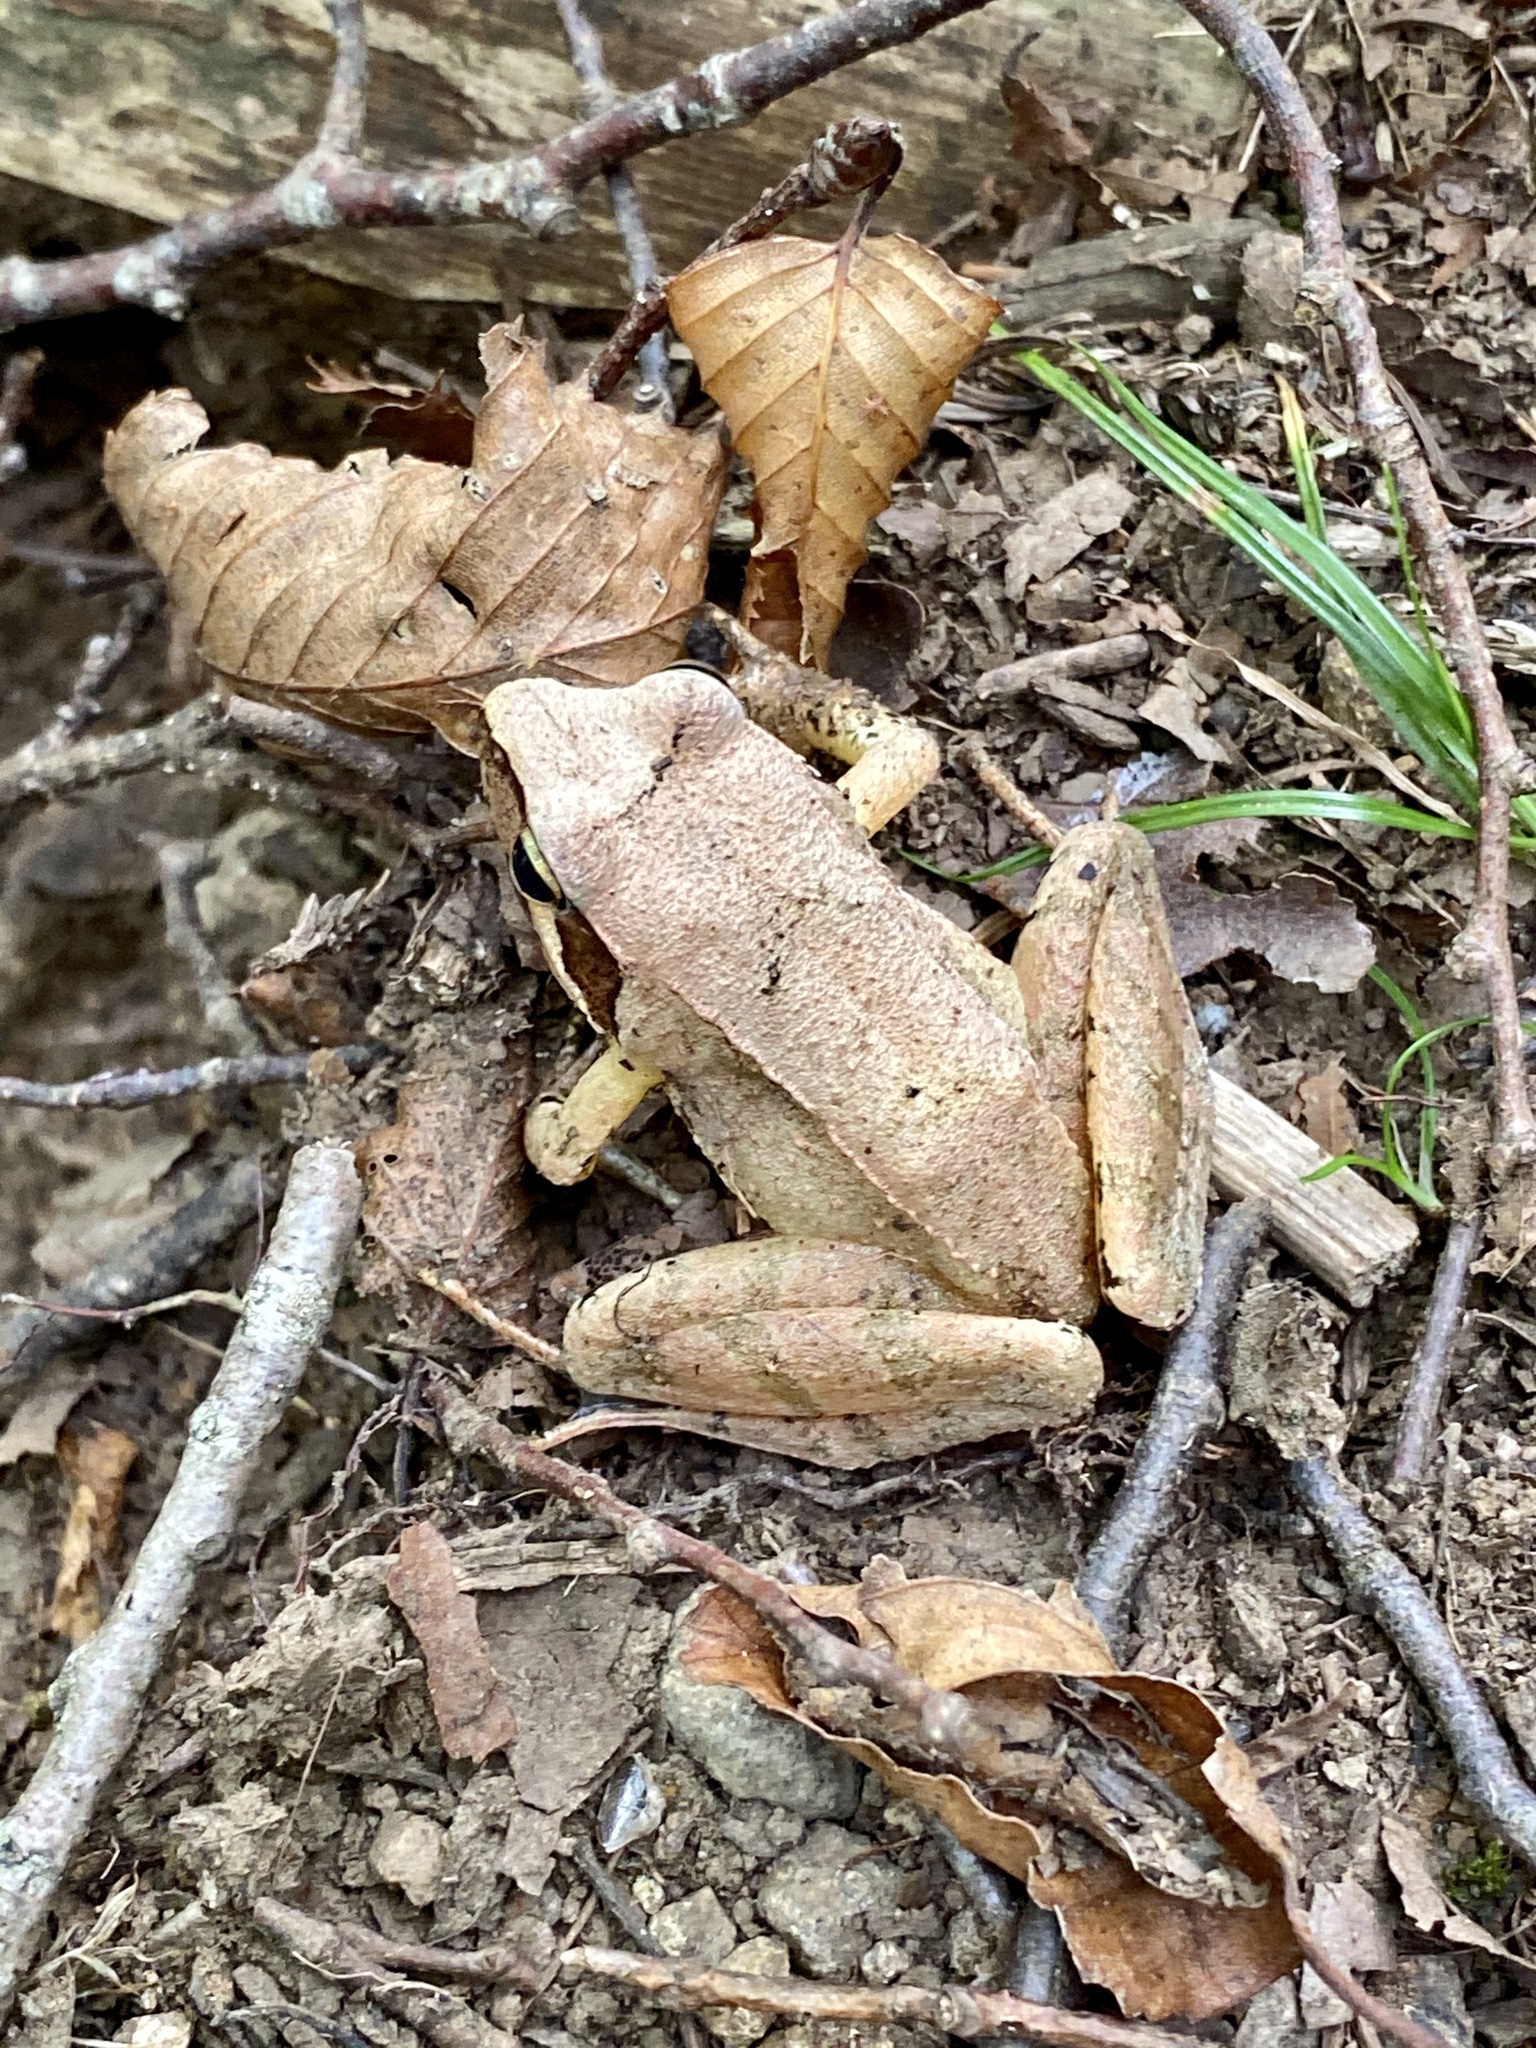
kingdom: Animalia
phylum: Chordata
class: Amphibia
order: Anura
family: Ranidae
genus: Rana
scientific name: Rana japonica
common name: Japanese brown frog
